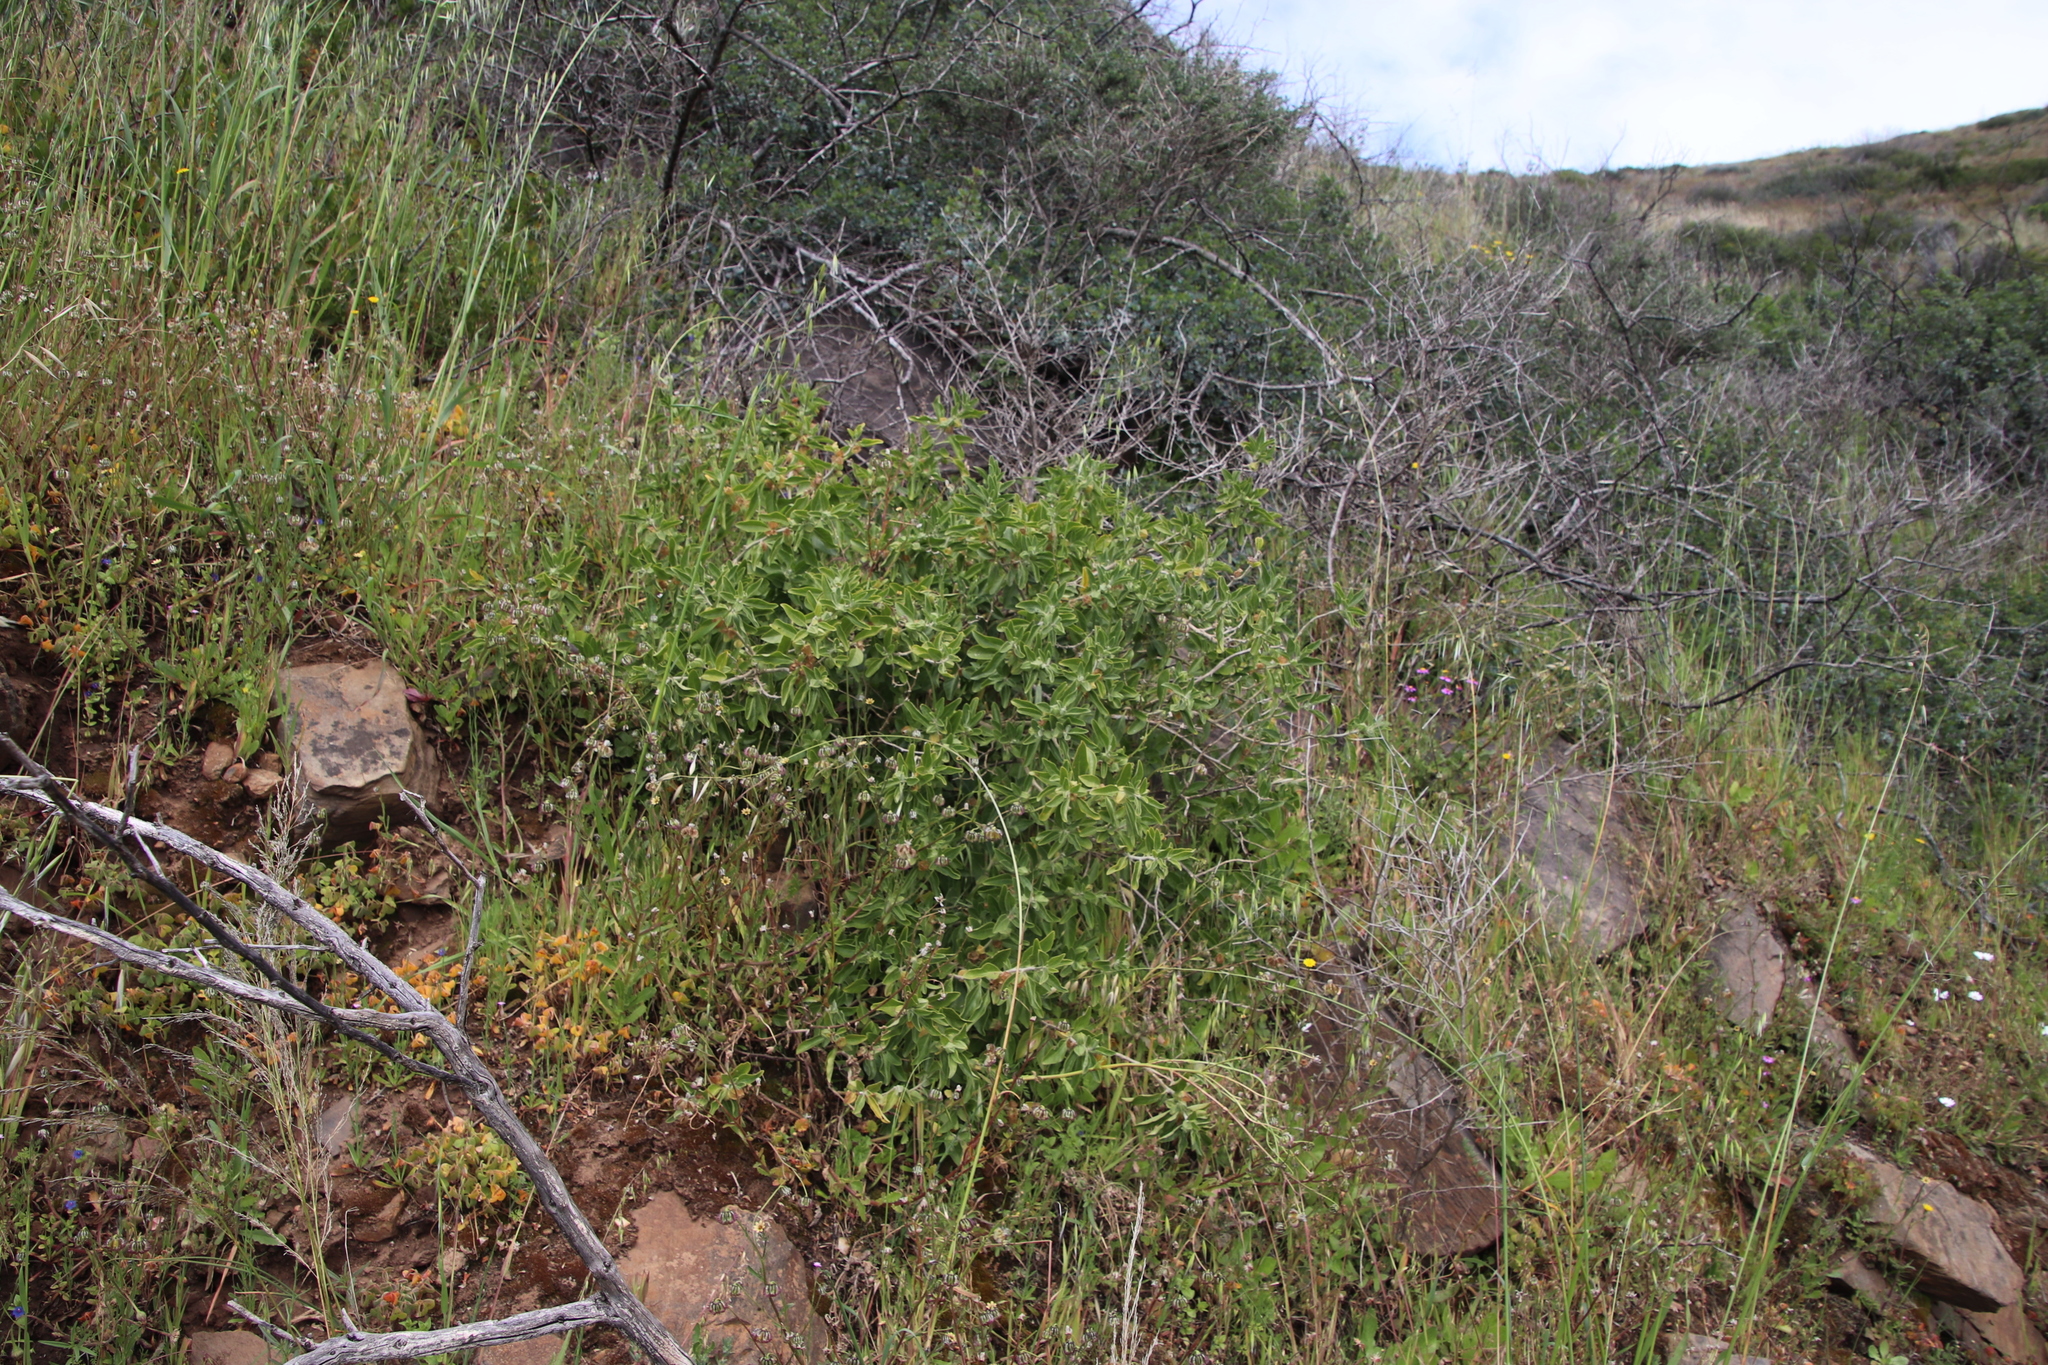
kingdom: Plantae
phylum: Tracheophyta
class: Magnoliopsida
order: Solanales
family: Solanaceae
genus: Withania
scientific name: Withania somnifera
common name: Winter-cherry
